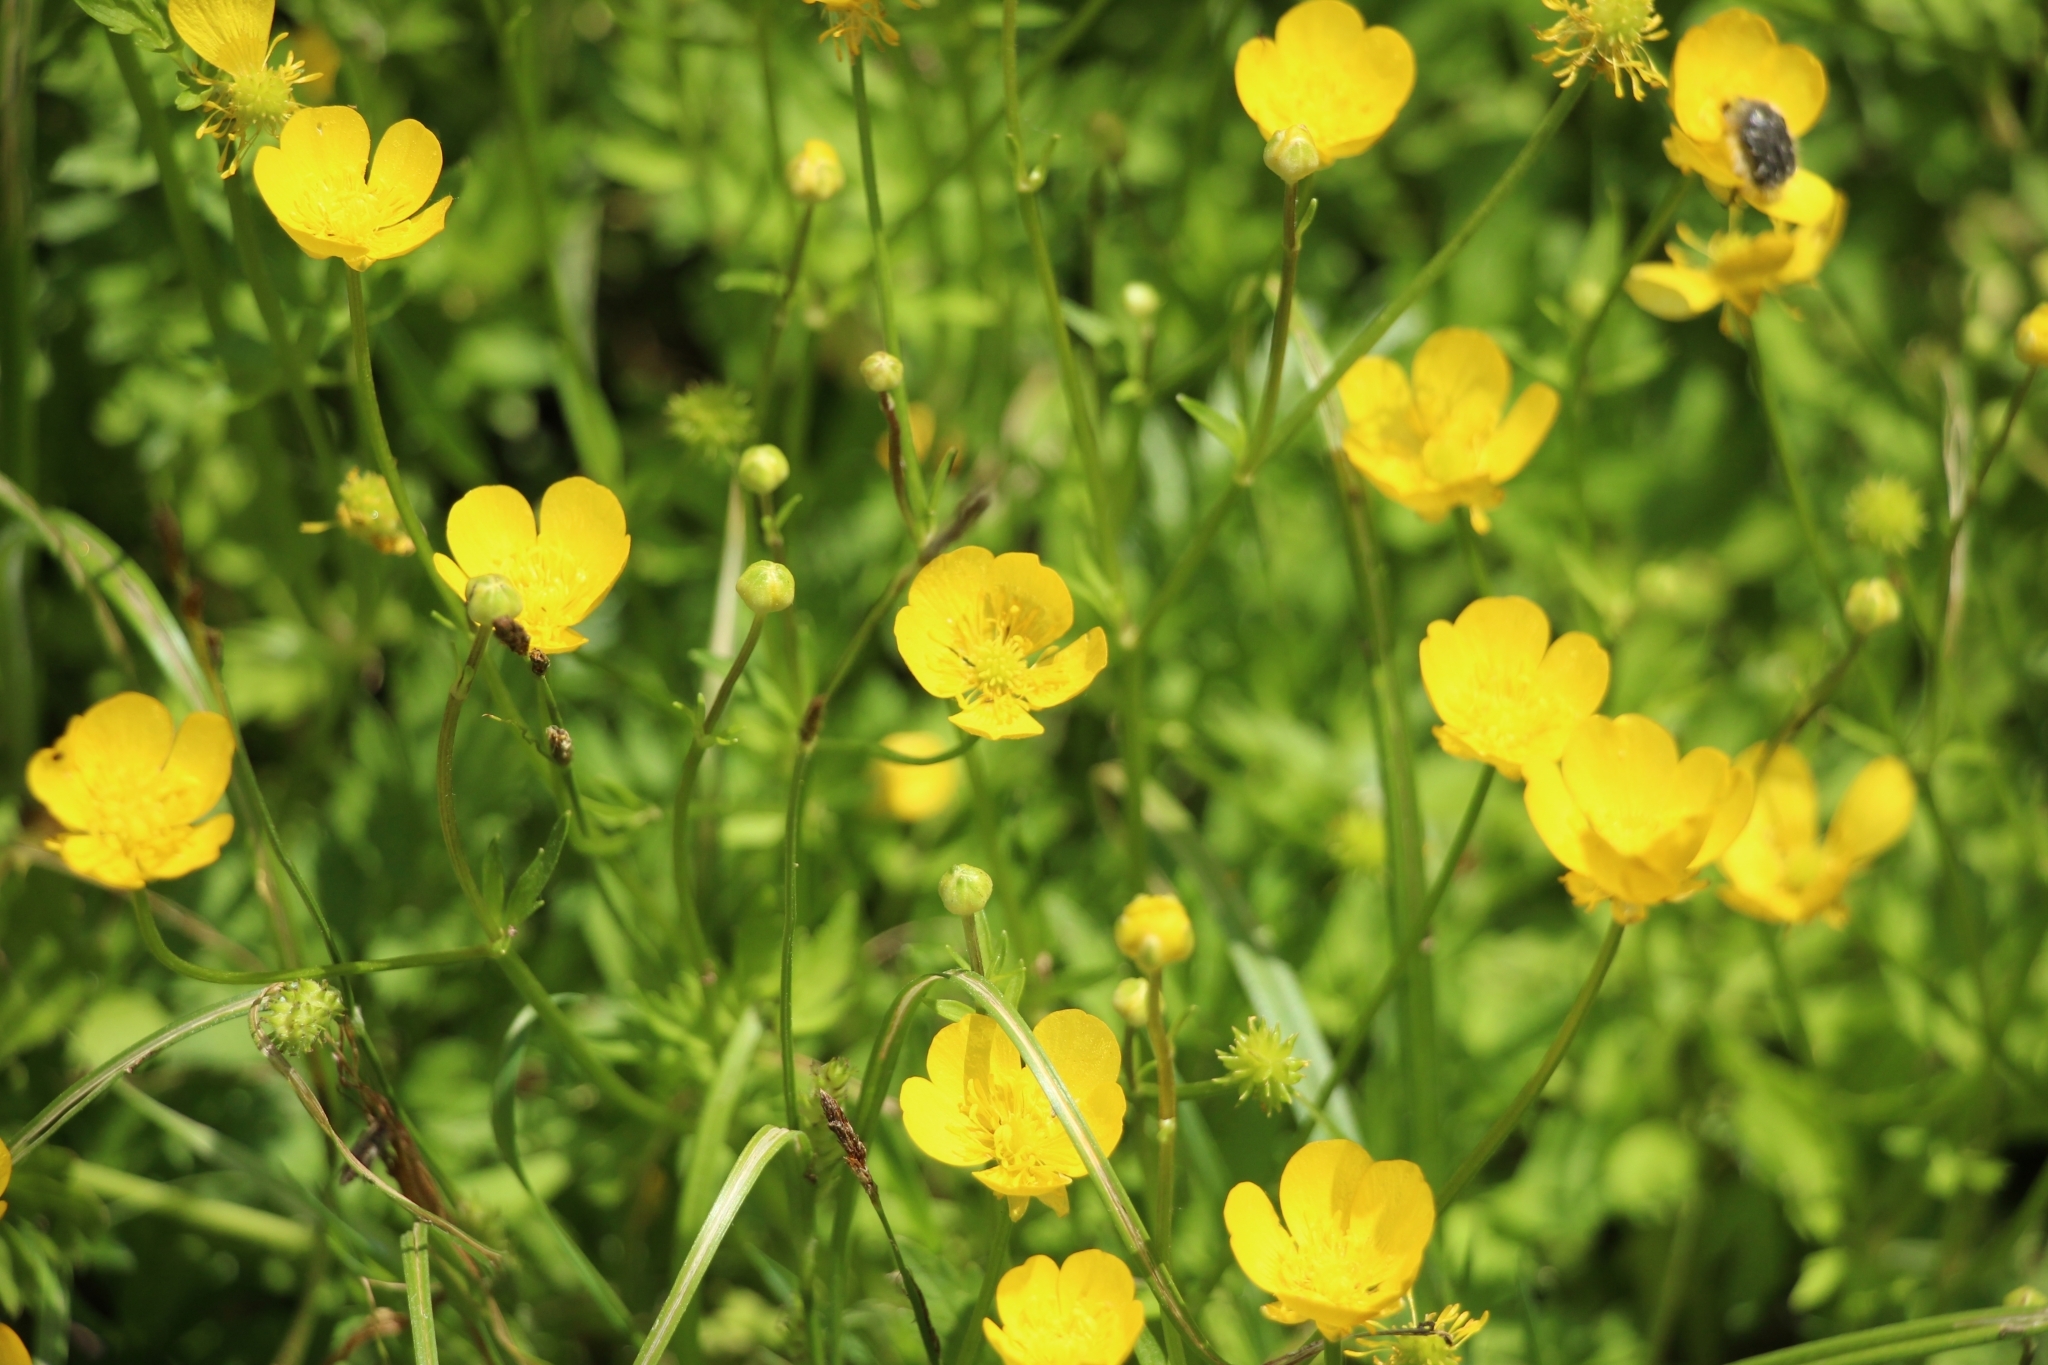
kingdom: Plantae
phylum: Tracheophyta
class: Magnoliopsida
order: Ranunculales
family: Ranunculaceae
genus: Ranunculus
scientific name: Ranunculus repens
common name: Creeping buttercup
